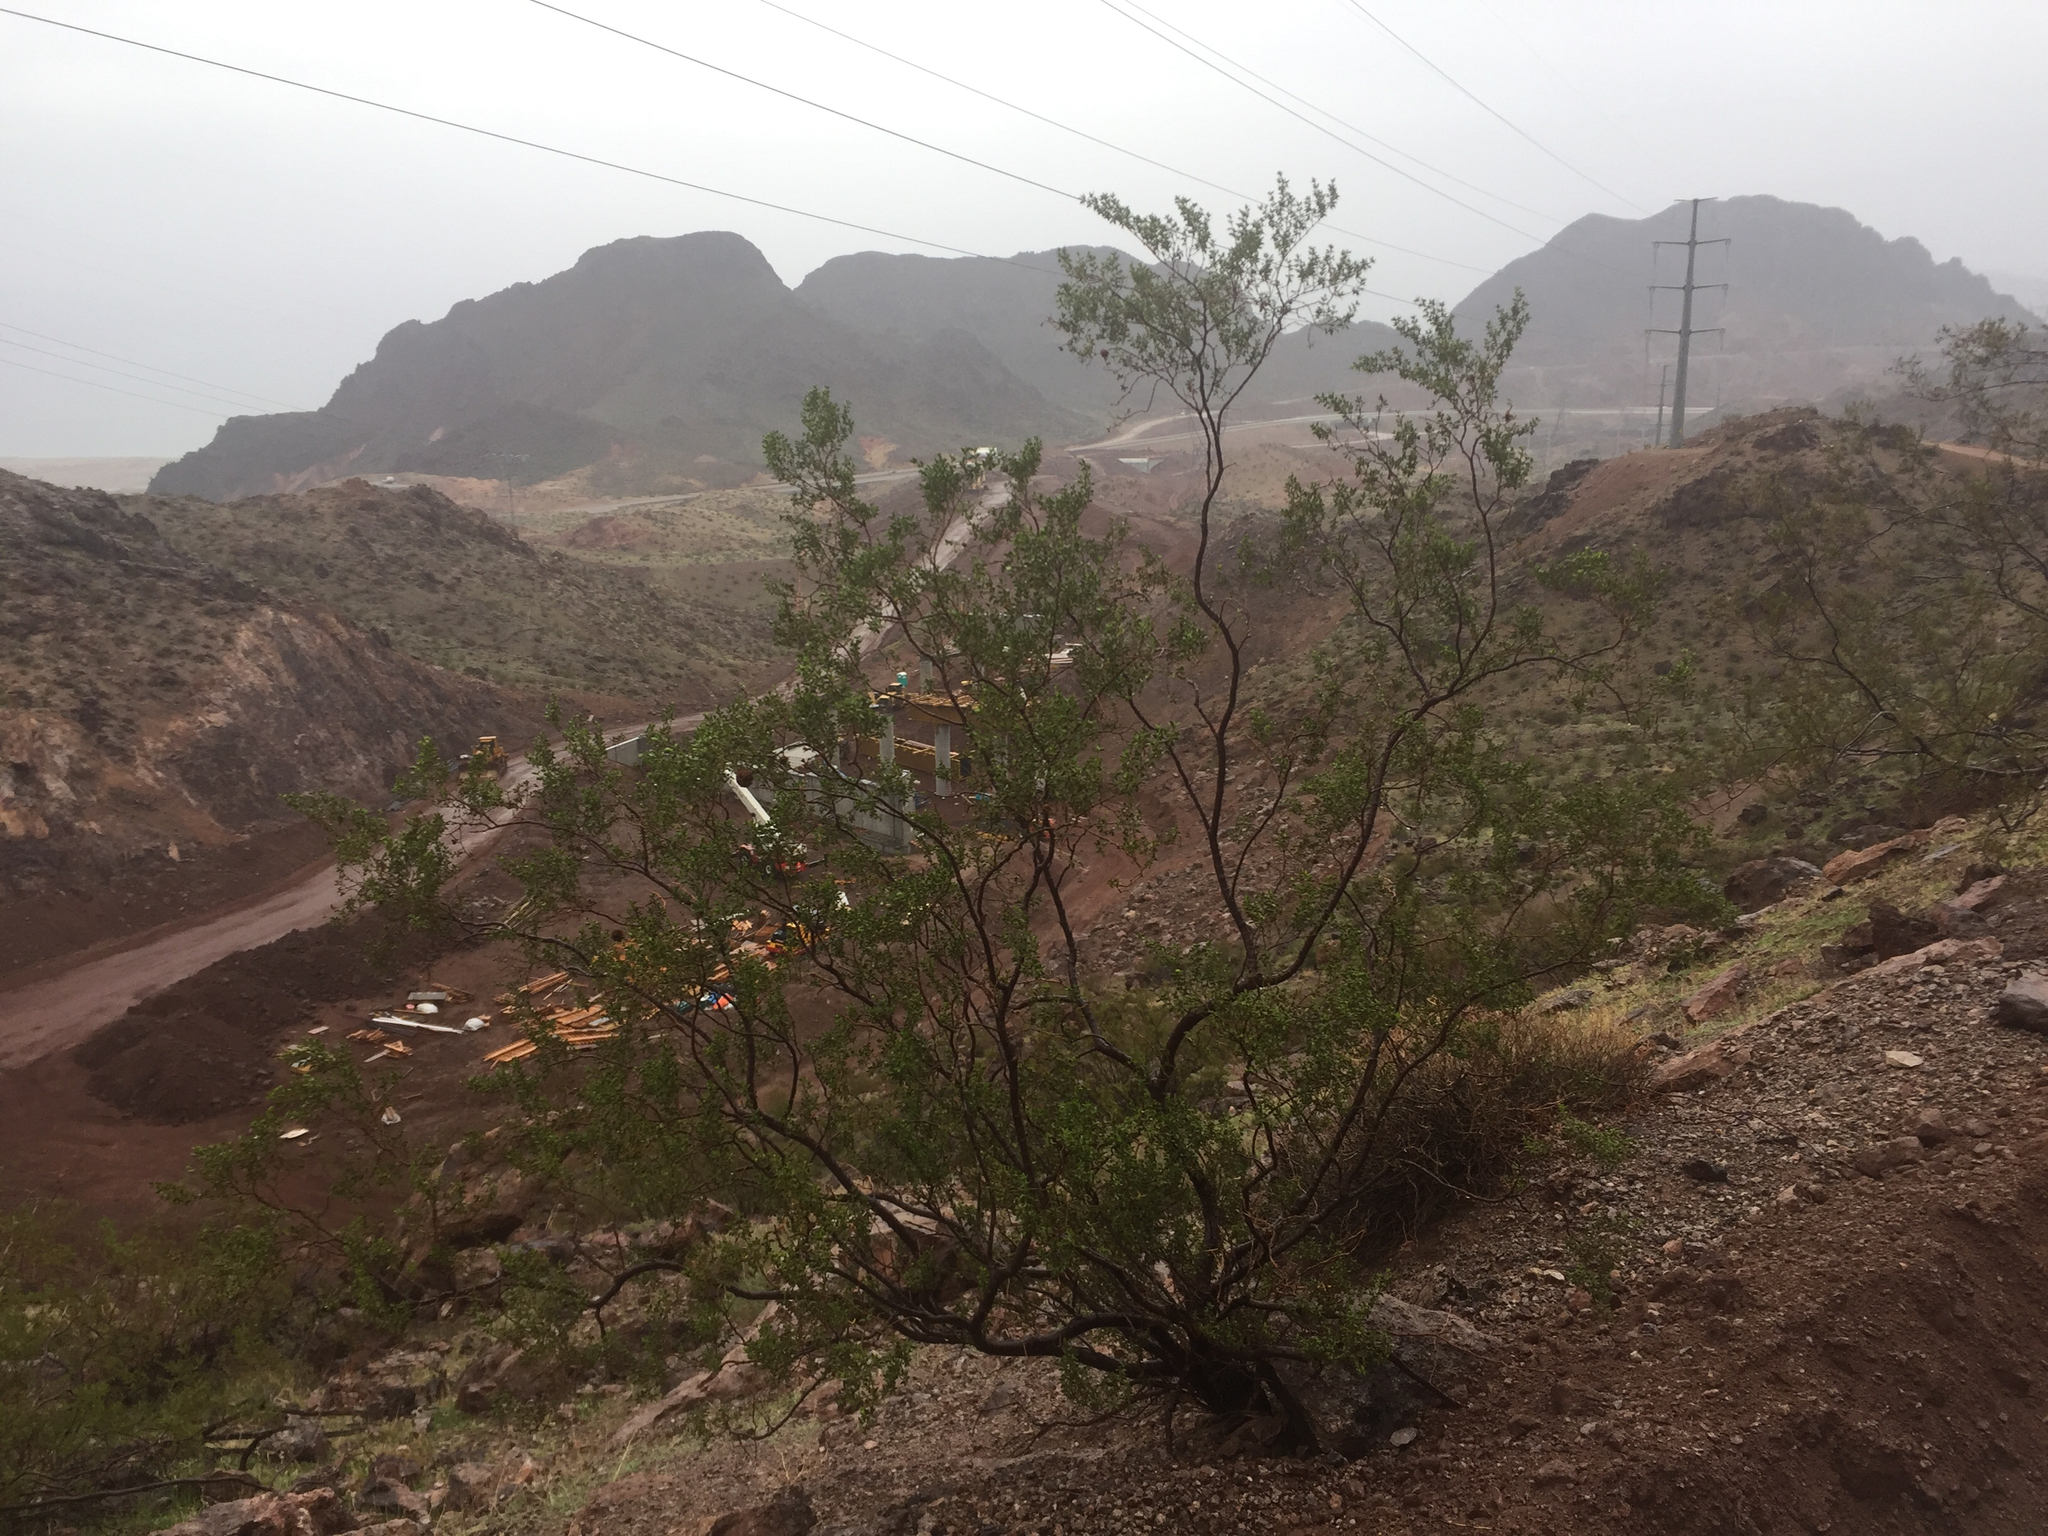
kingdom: Plantae
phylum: Tracheophyta
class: Magnoliopsida
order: Zygophyllales
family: Zygophyllaceae
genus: Larrea
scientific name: Larrea tridentata
